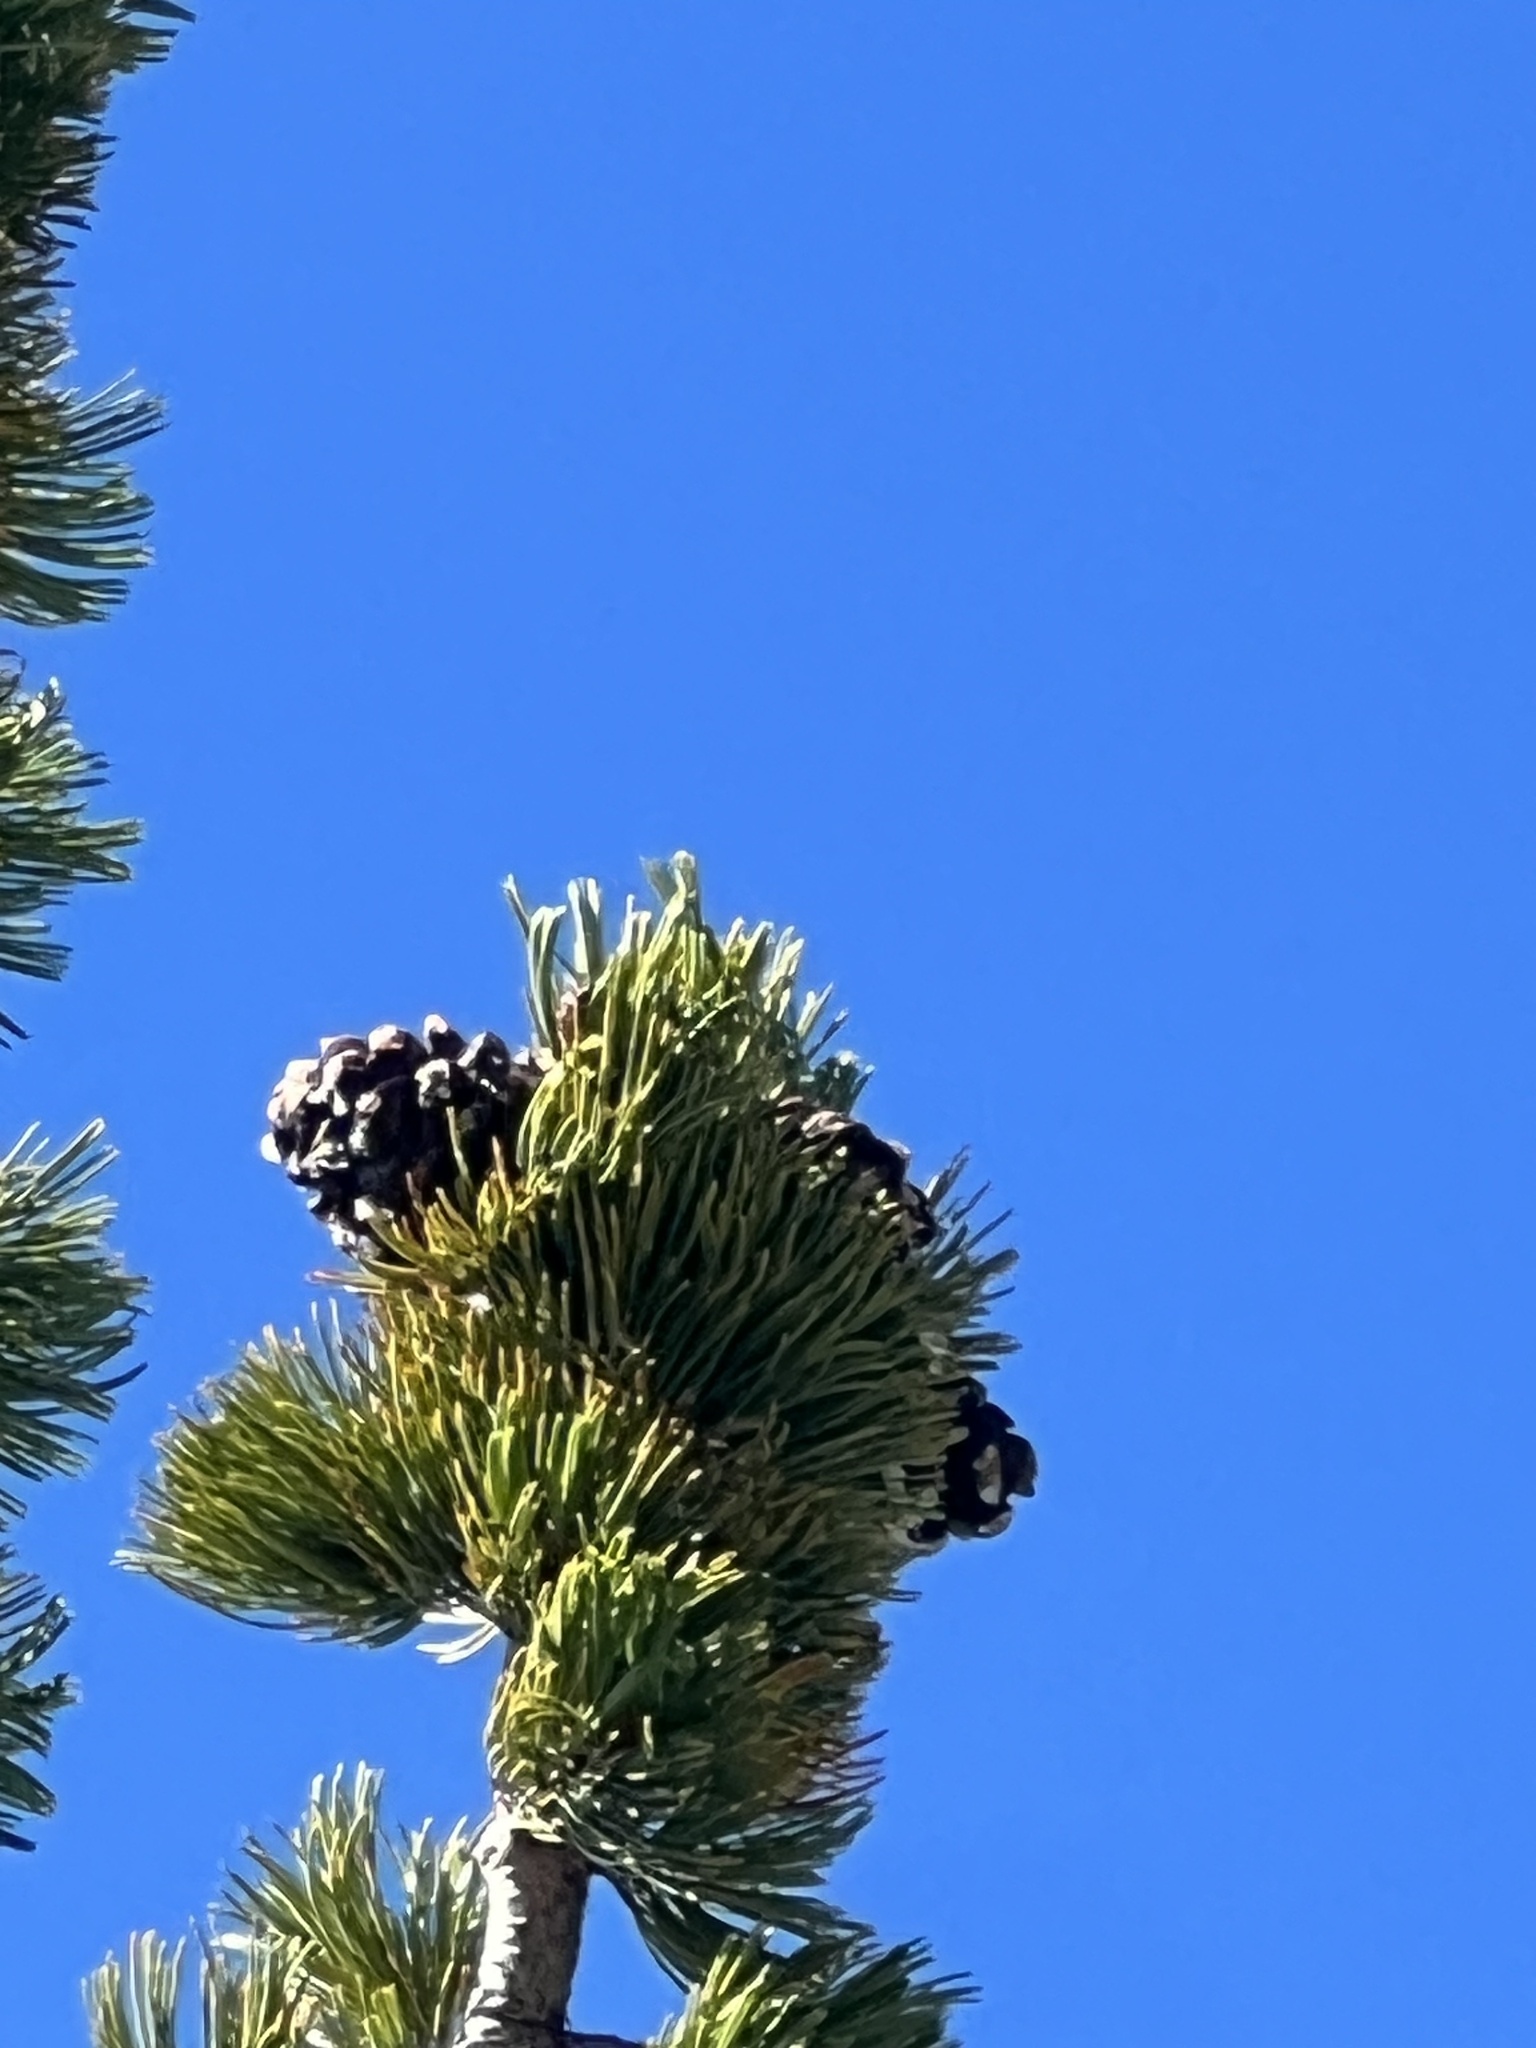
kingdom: Plantae
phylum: Tracheophyta
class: Pinopsida
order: Pinales
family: Pinaceae
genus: Pinus
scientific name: Pinus albicaulis
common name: Whitebark pine
